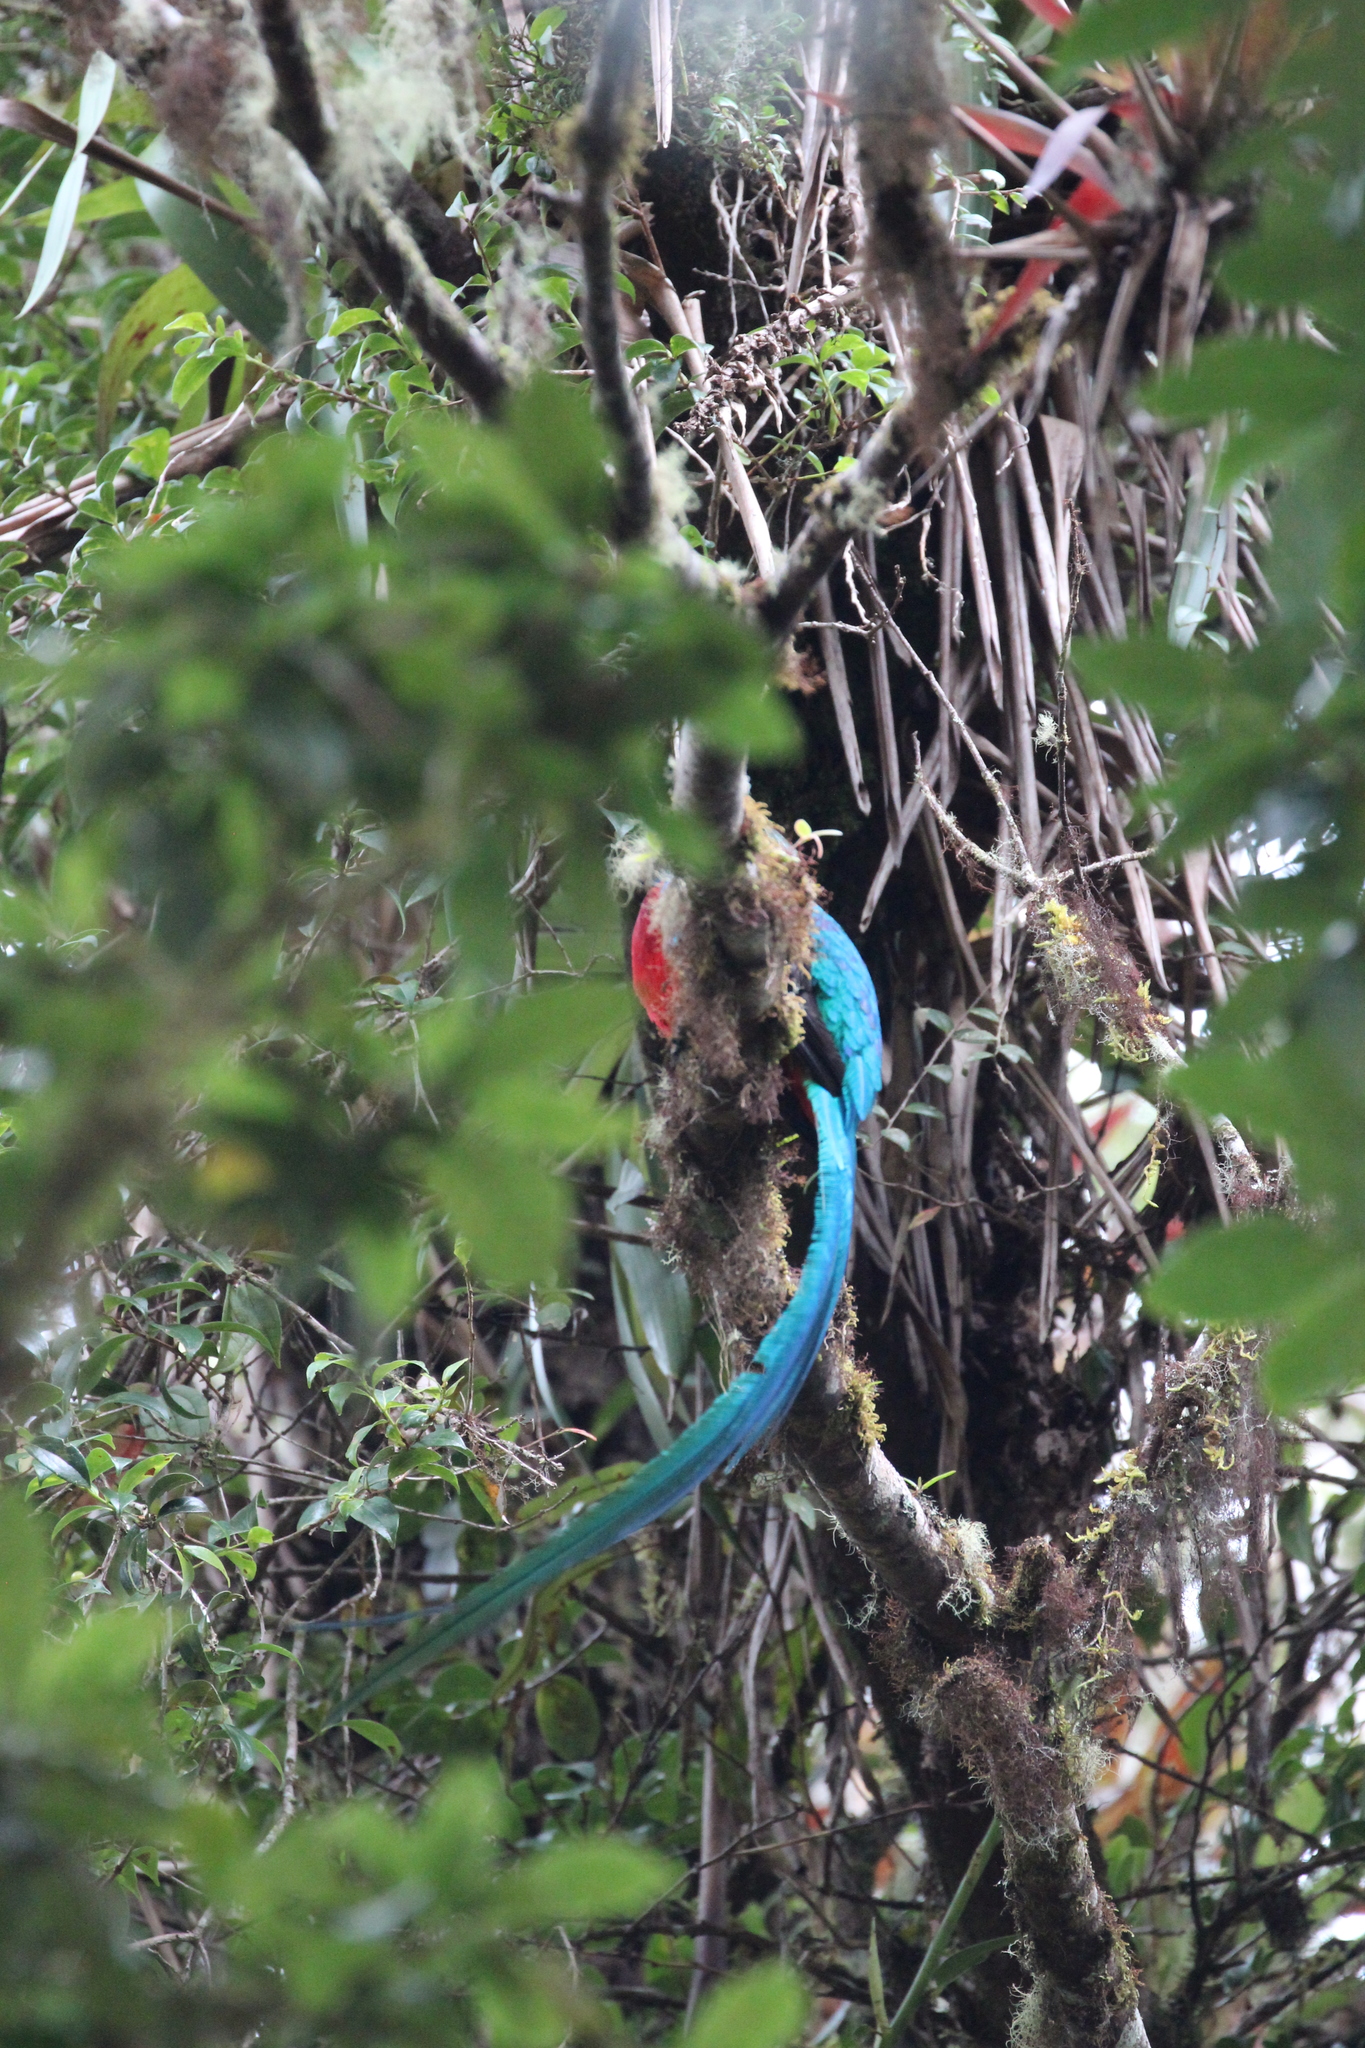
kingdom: Animalia
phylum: Chordata
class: Aves
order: Trogoniformes
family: Trogonidae
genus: Pharomachrus
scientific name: Pharomachrus mocinno
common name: Resplendent quetzal
